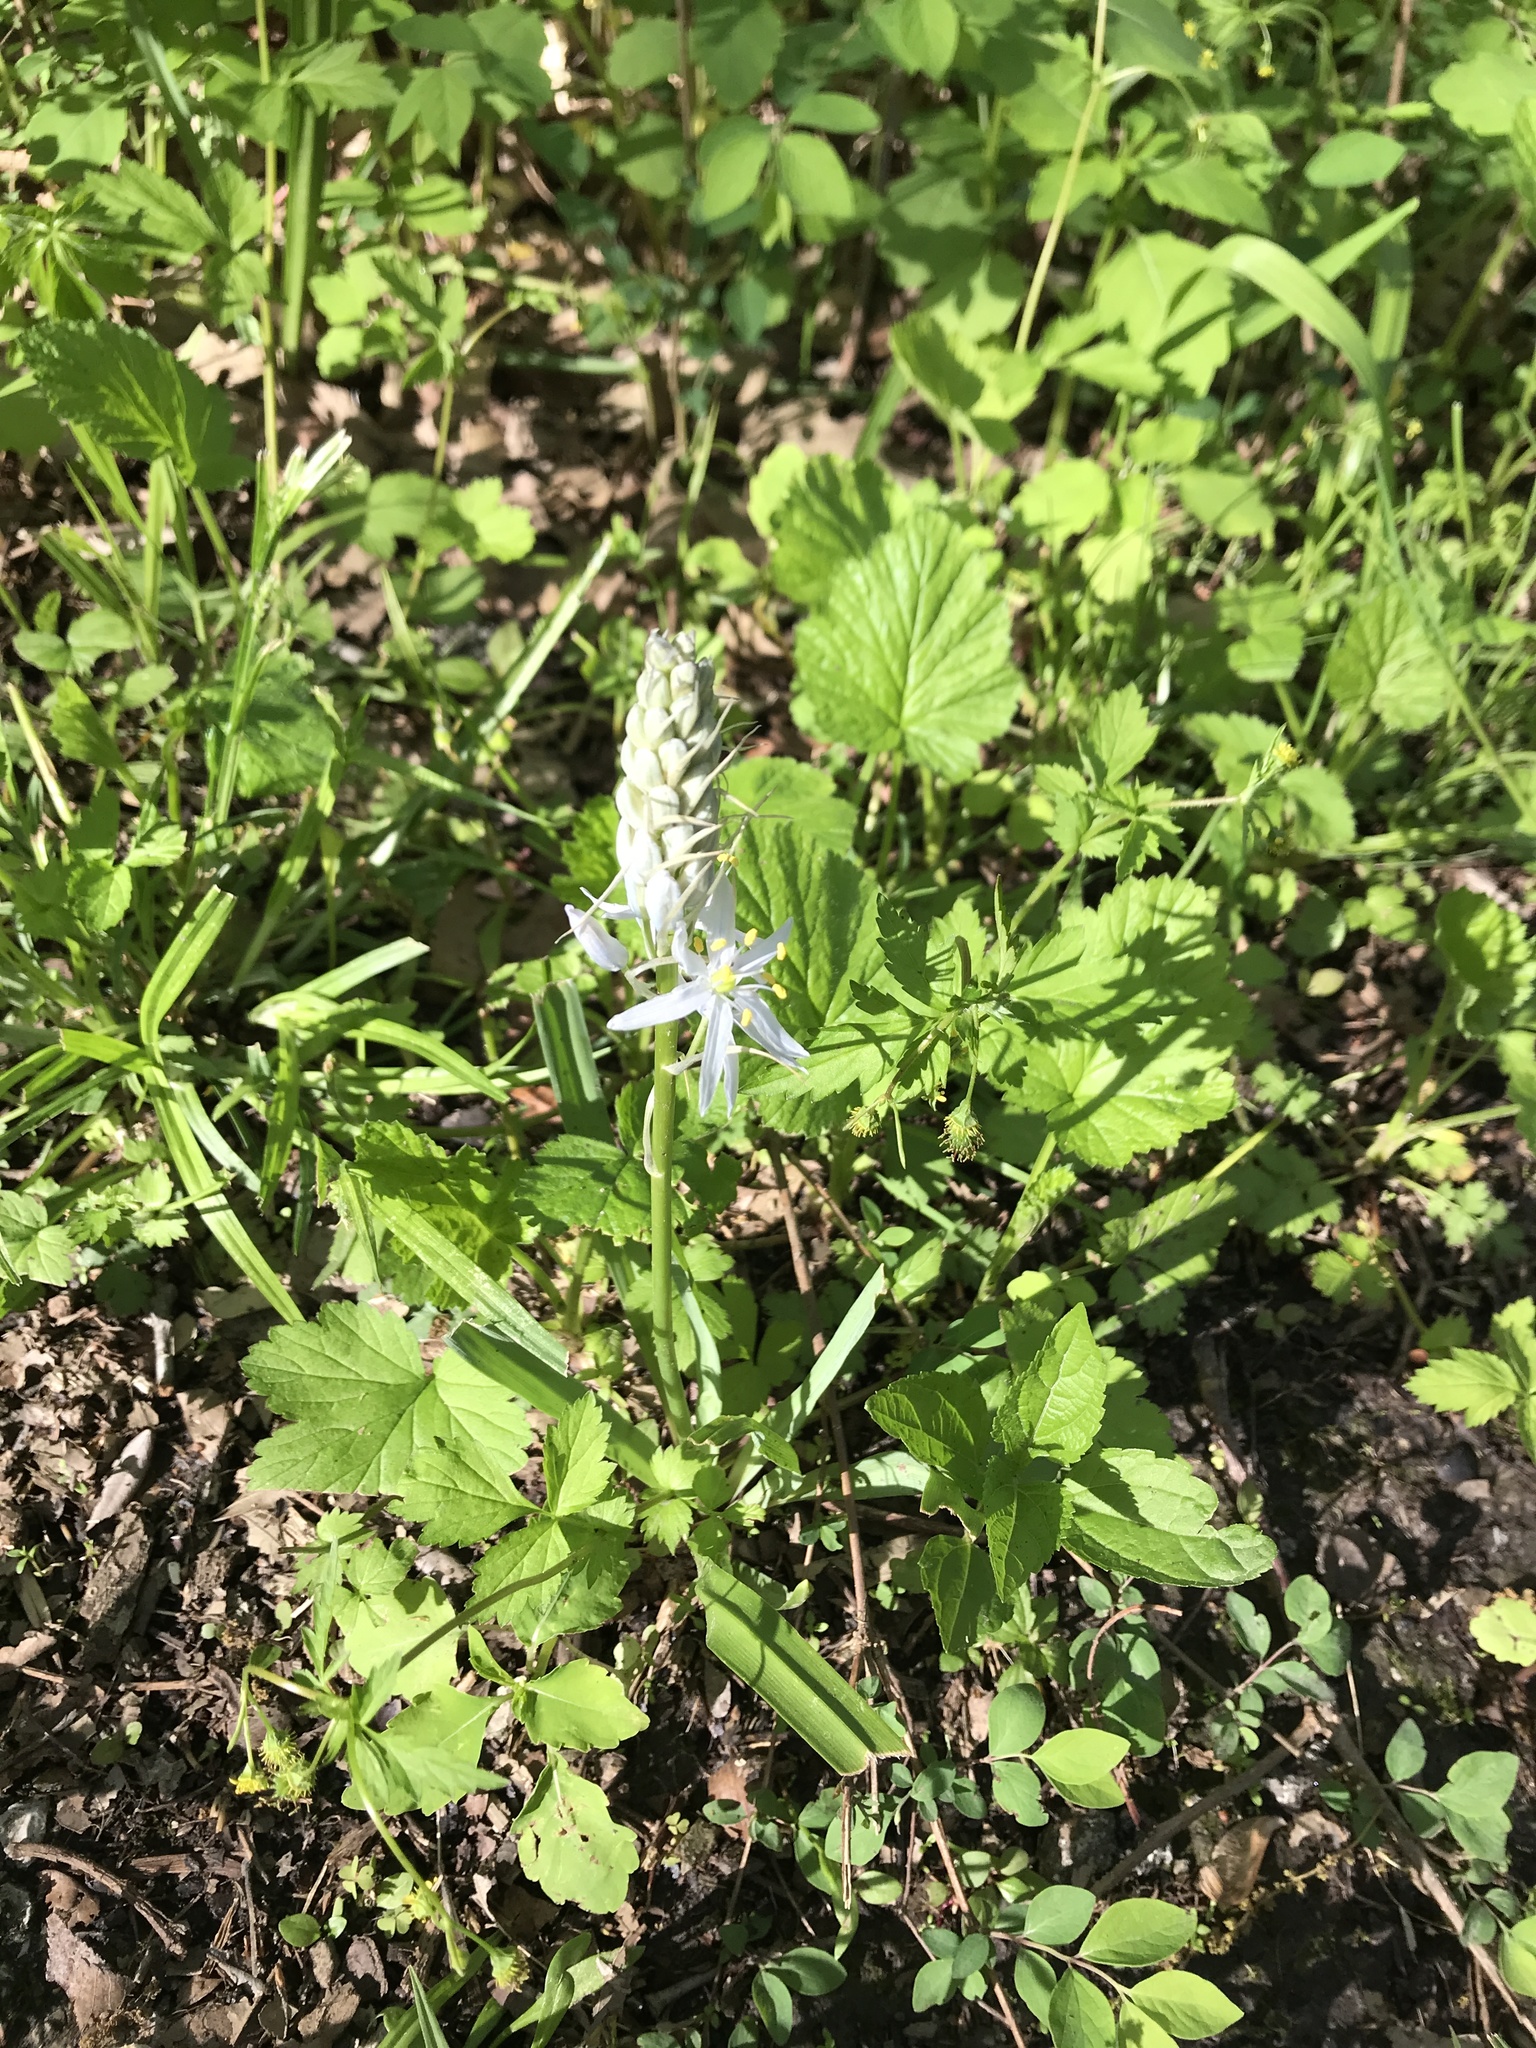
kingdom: Plantae
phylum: Tracheophyta
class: Liliopsida
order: Asparagales
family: Asparagaceae
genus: Camassia
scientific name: Camassia scilloides
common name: Wild hyacinth
